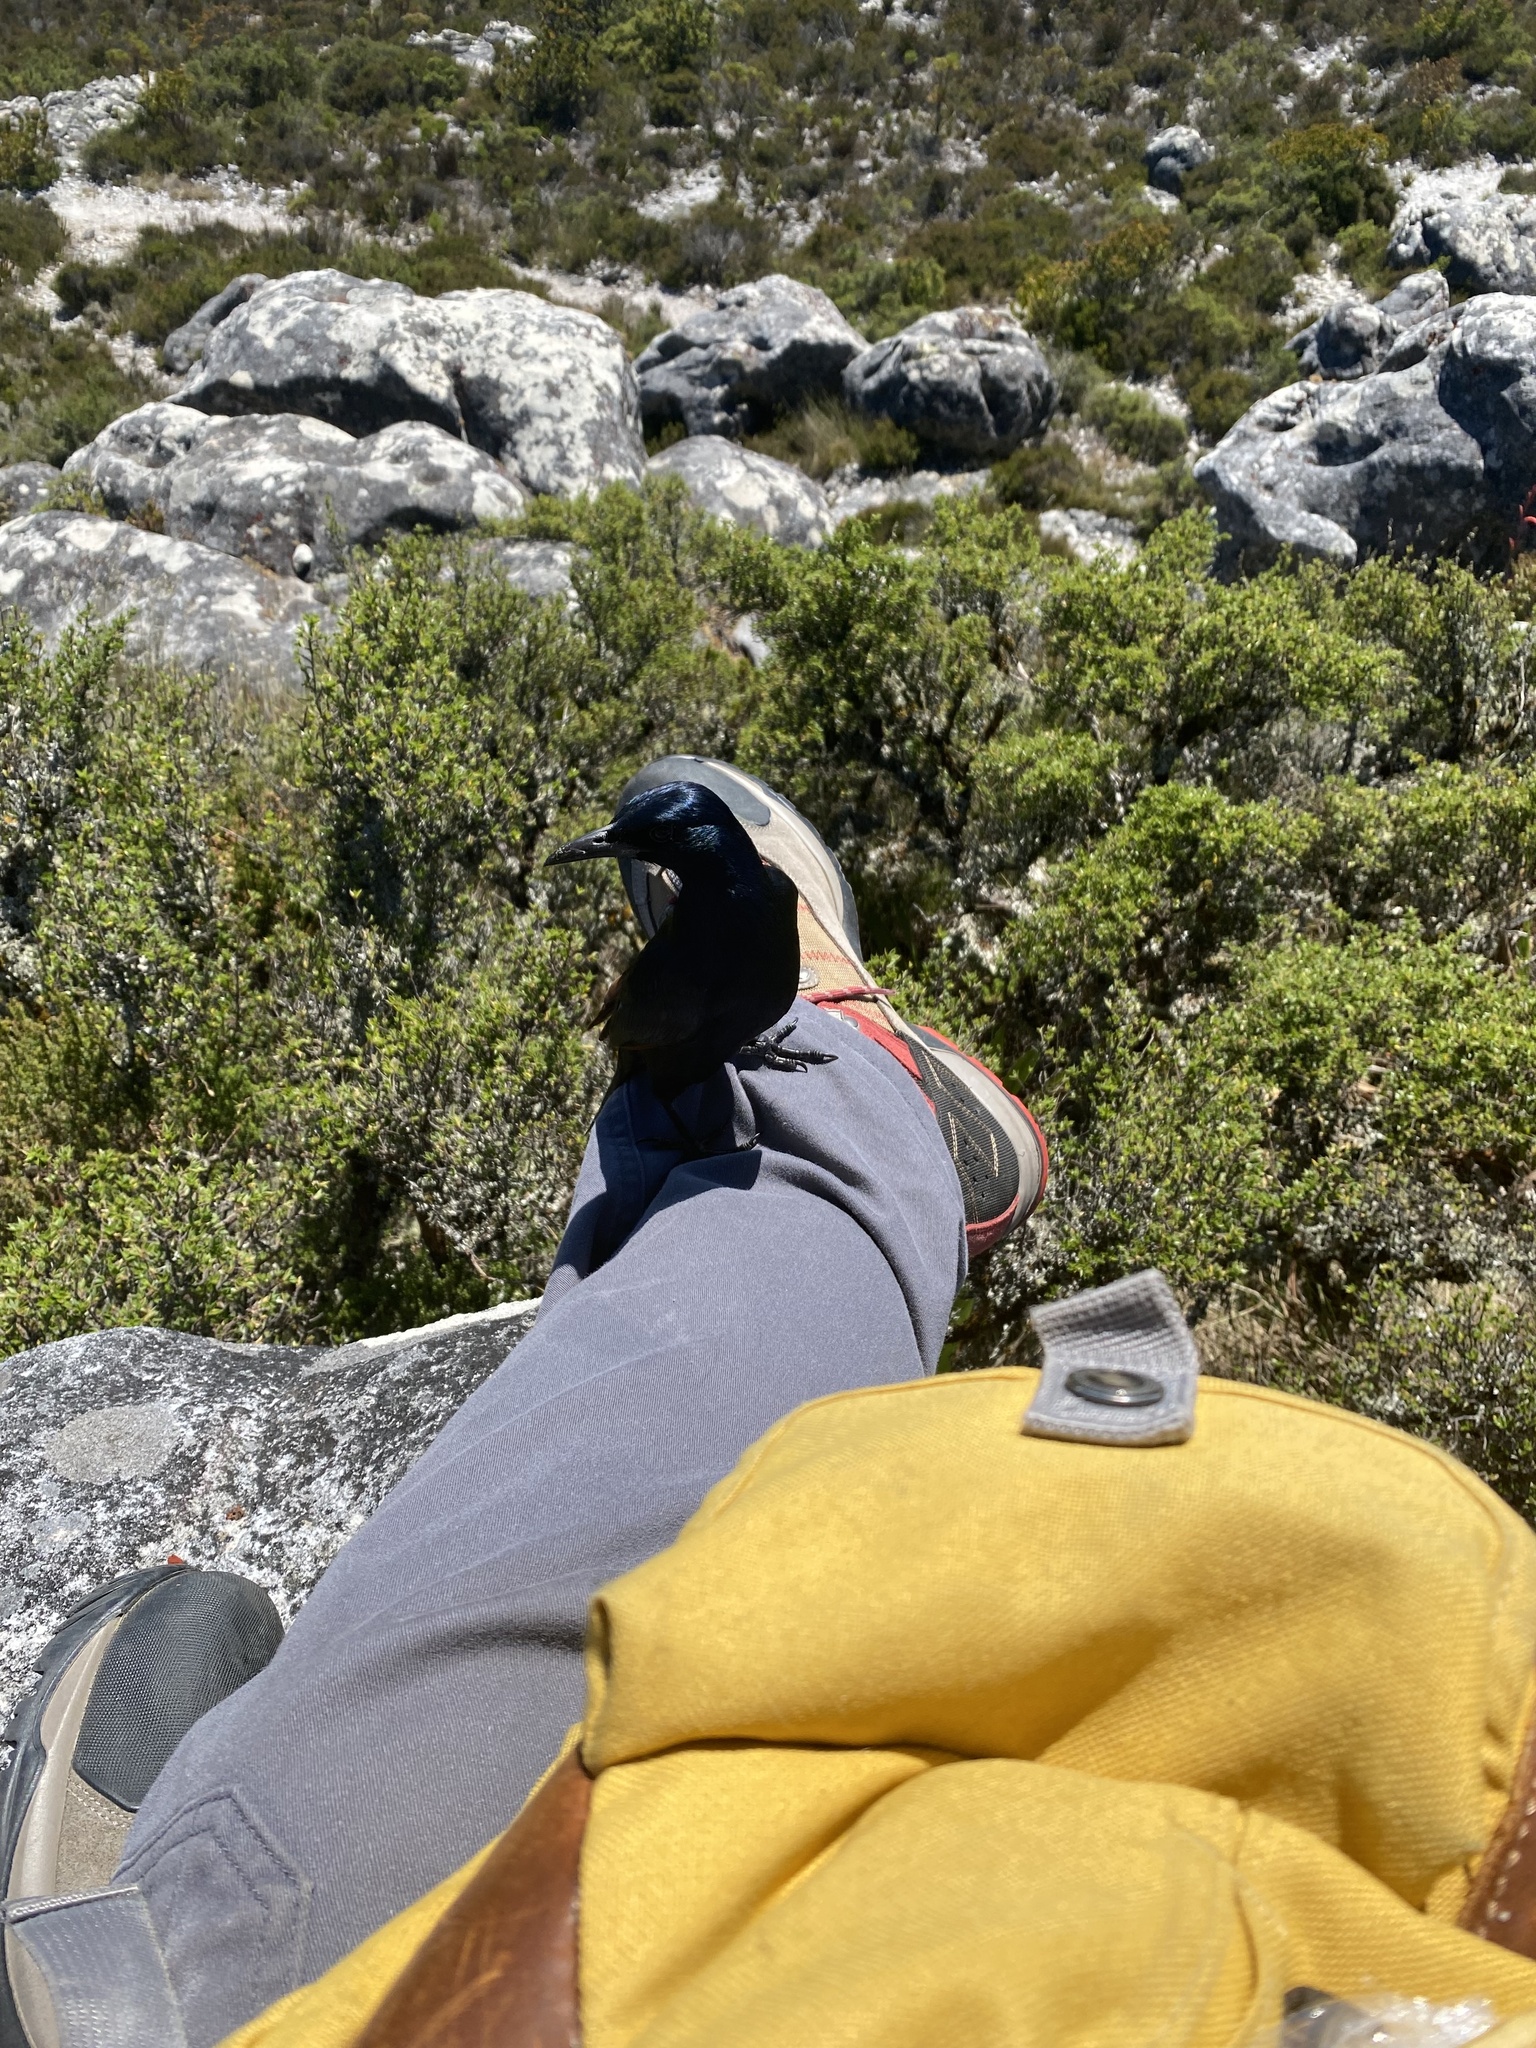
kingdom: Animalia
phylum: Chordata
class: Aves
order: Passeriformes
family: Sturnidae
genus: Onychognathus
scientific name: Onychognathus morio
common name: Red-winged starling
